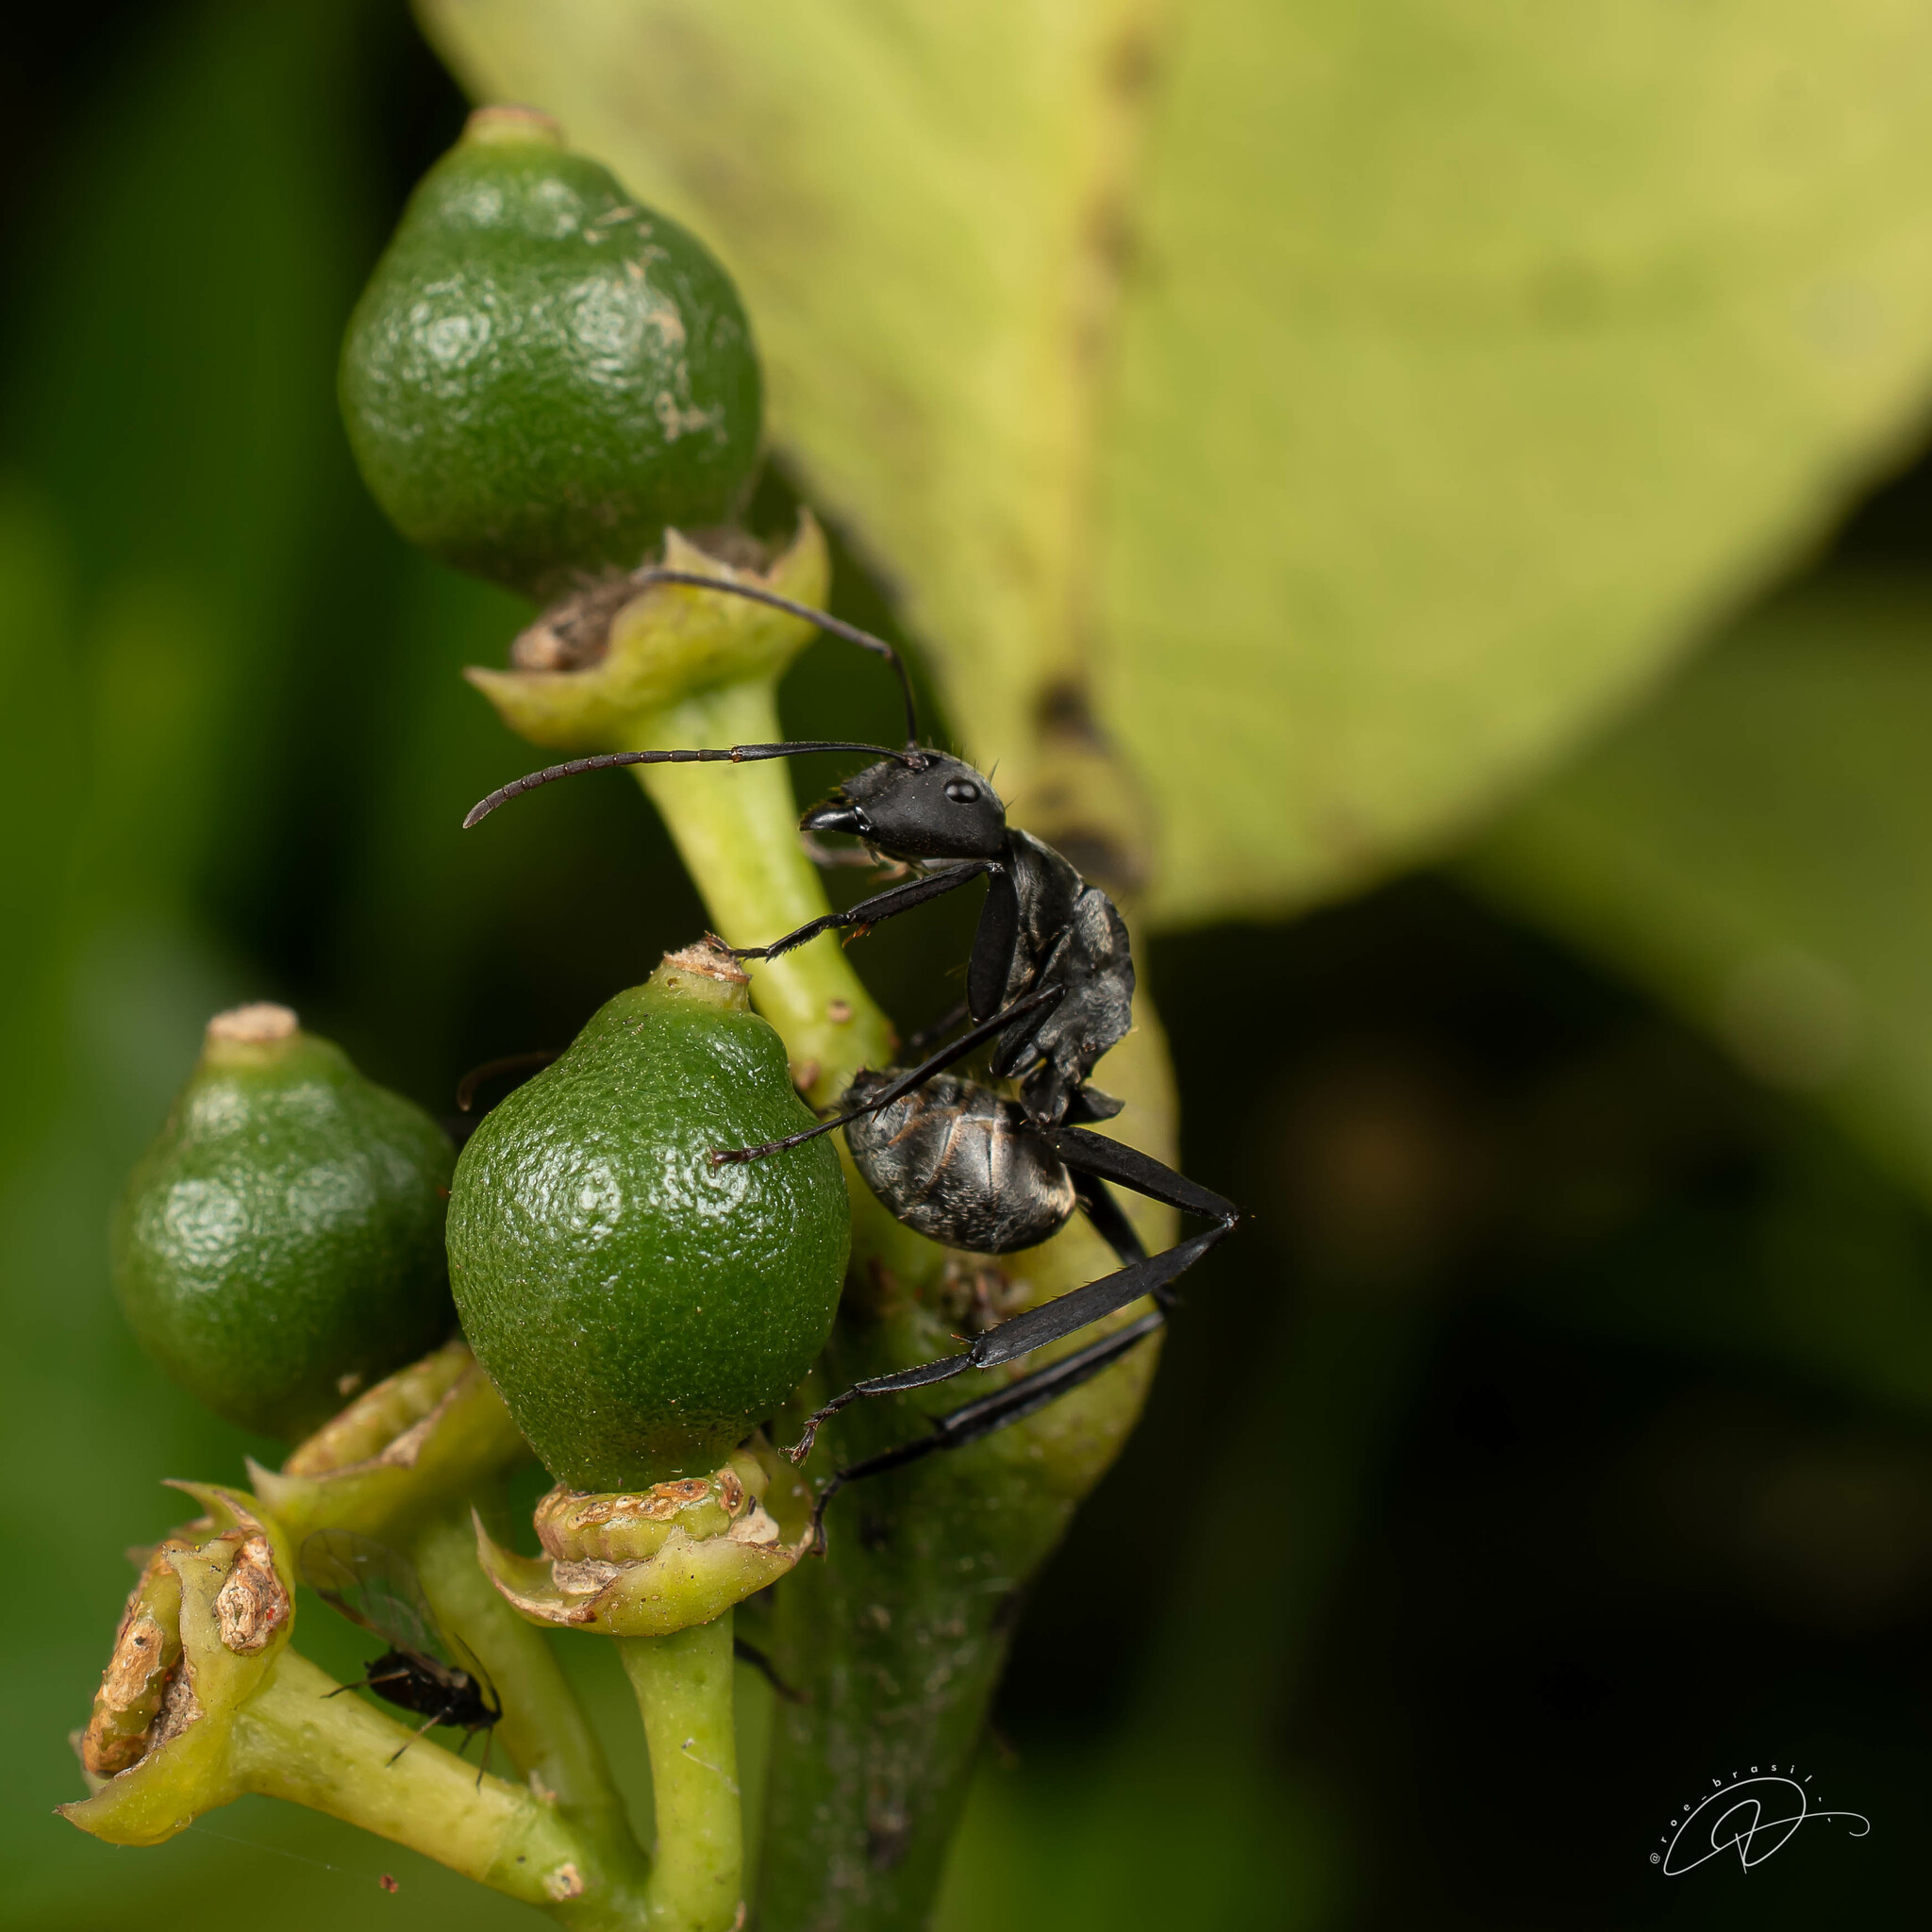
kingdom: Animalia
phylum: Arthropoda
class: Insecta
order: Hymenoptera
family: Formicidae
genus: Camponotus
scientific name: Camponotus sericeiventris
